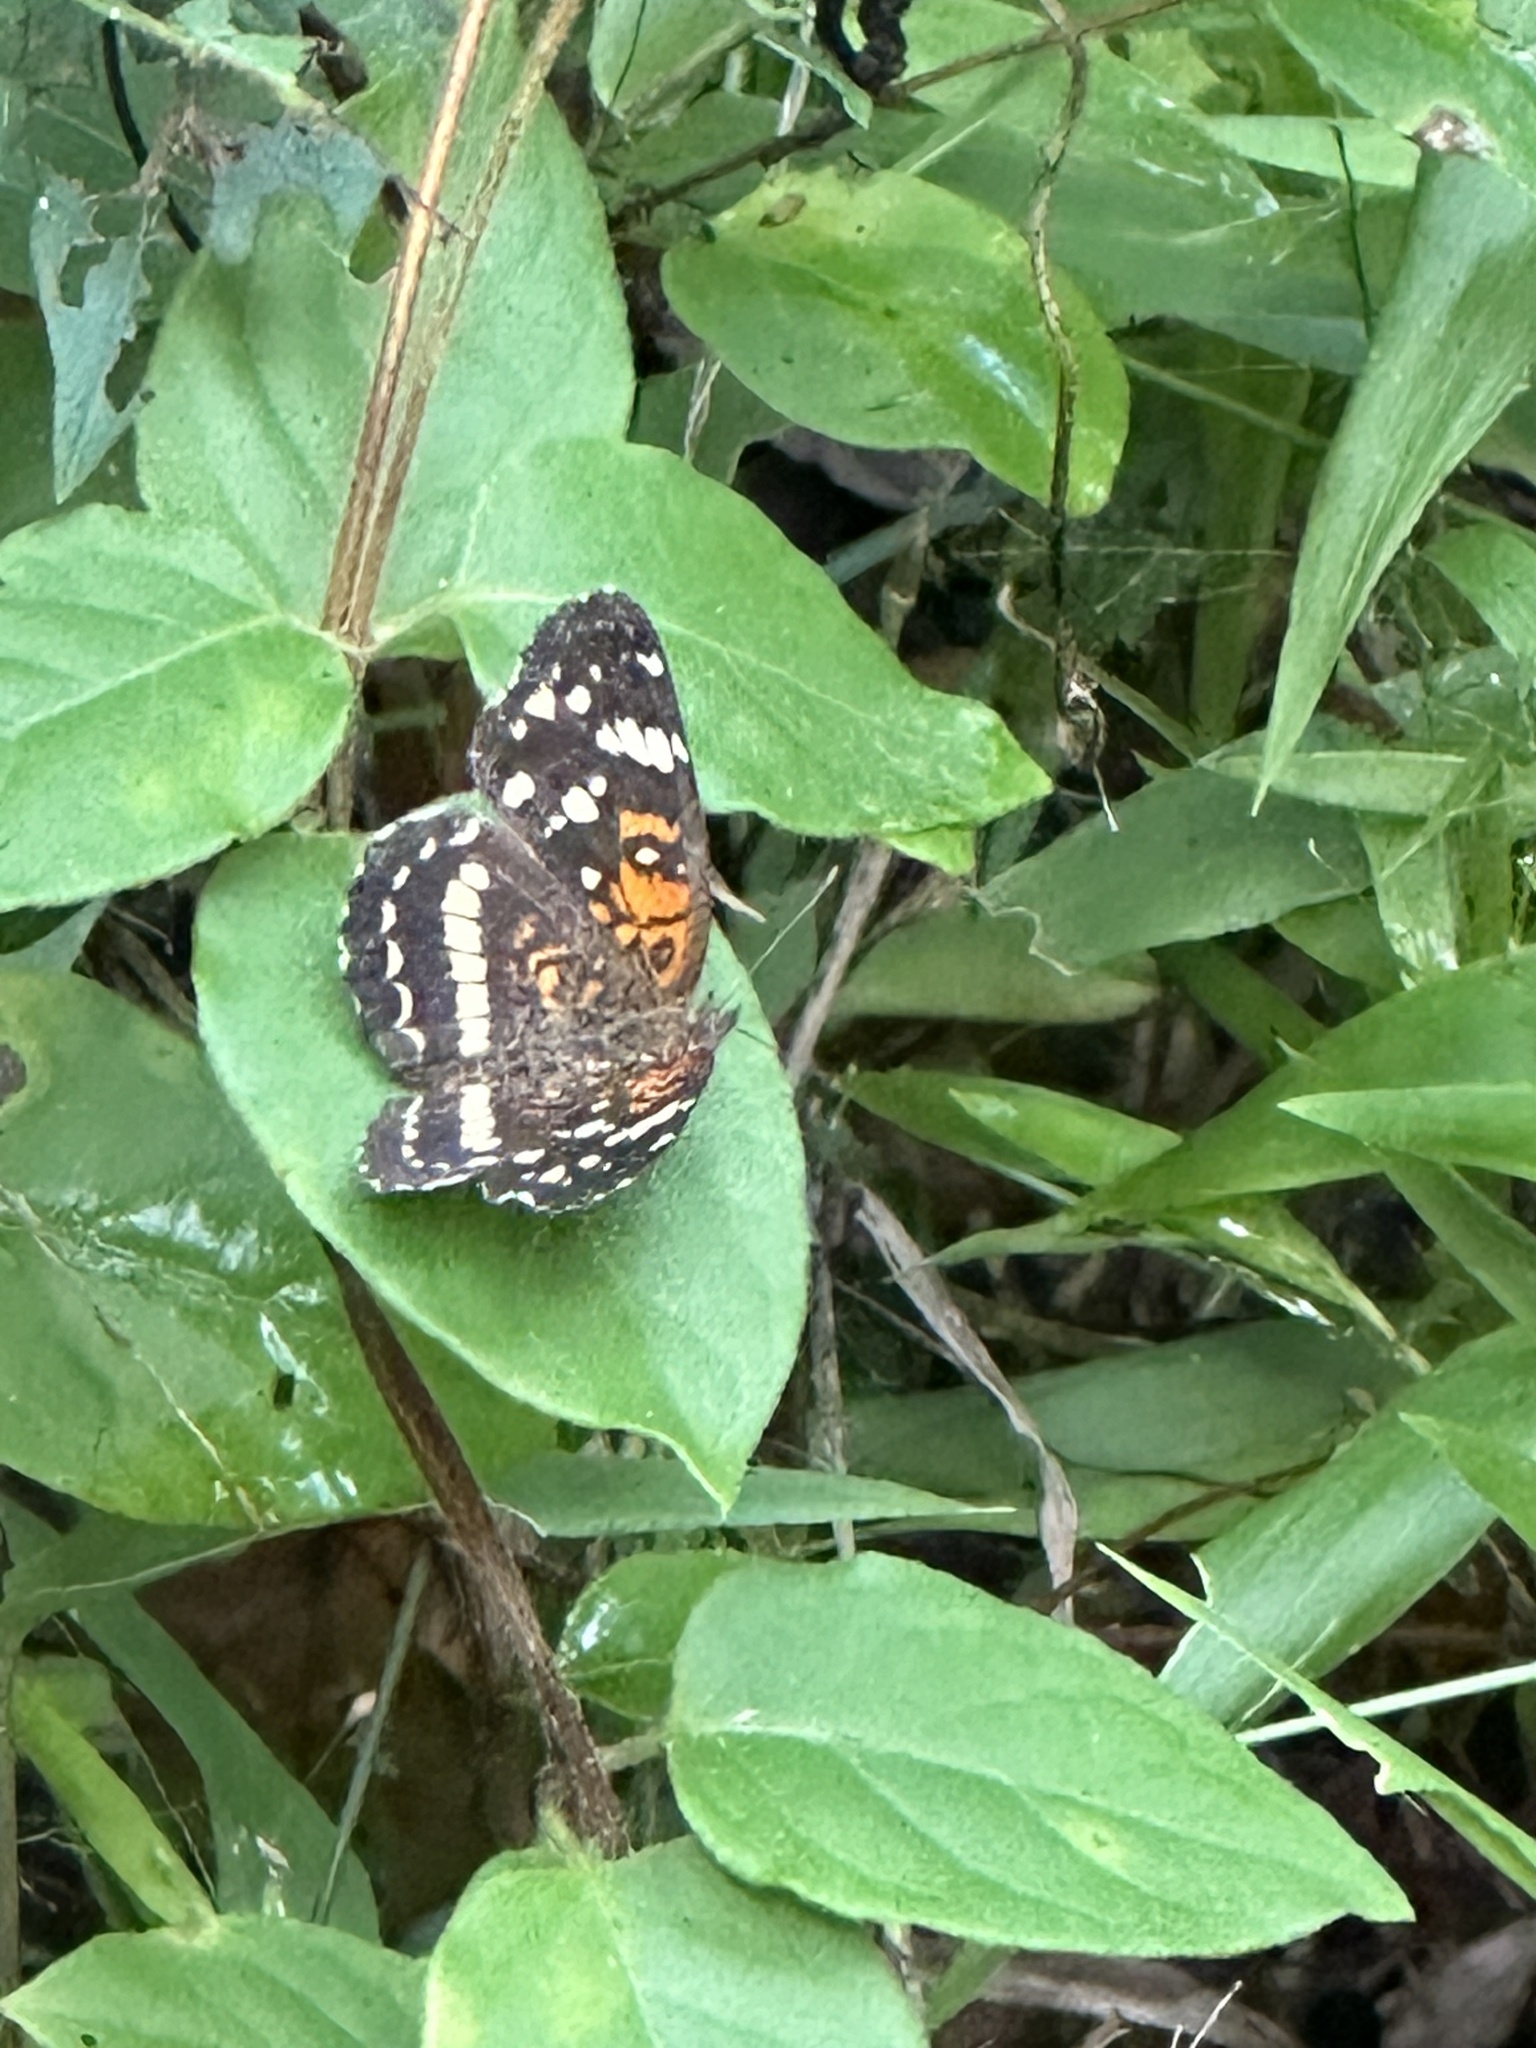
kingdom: Animalia
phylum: Arthropoda
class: Insecta
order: Lepidoptera
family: Nymphalidae
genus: Anthanassa
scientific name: Anthanassa taxana
